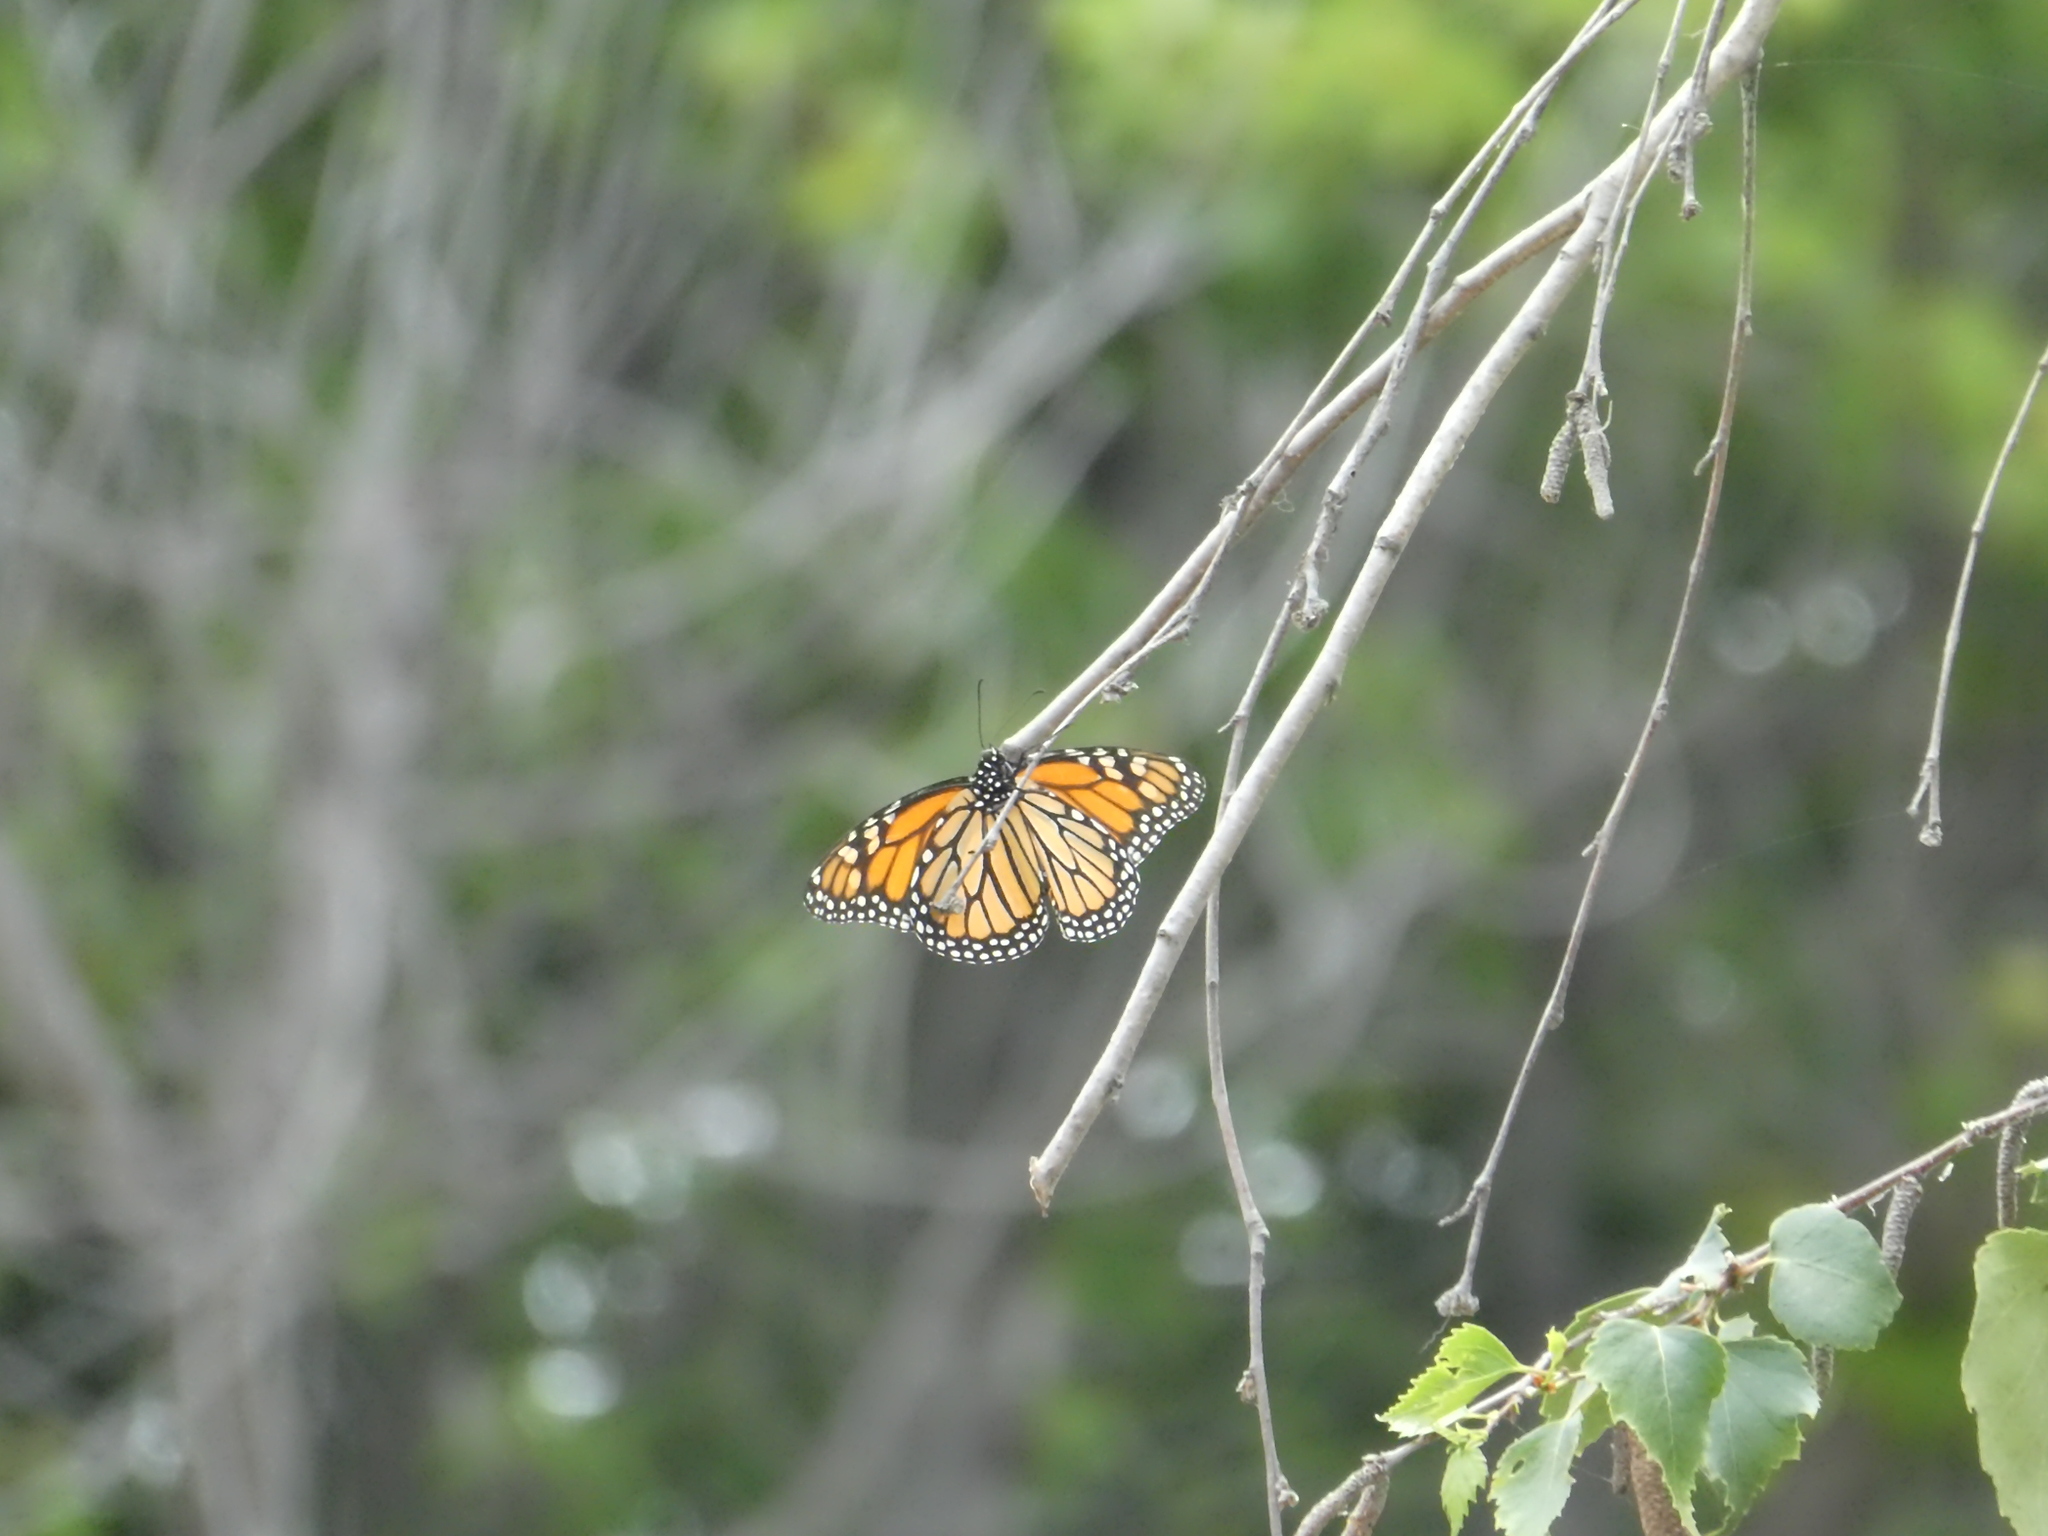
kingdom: Animalia
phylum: Arthropoda
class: Insecta
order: Lepidoptera
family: Nymphalidae
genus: Danaus
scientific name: Danaus plexippus
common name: Monarch
